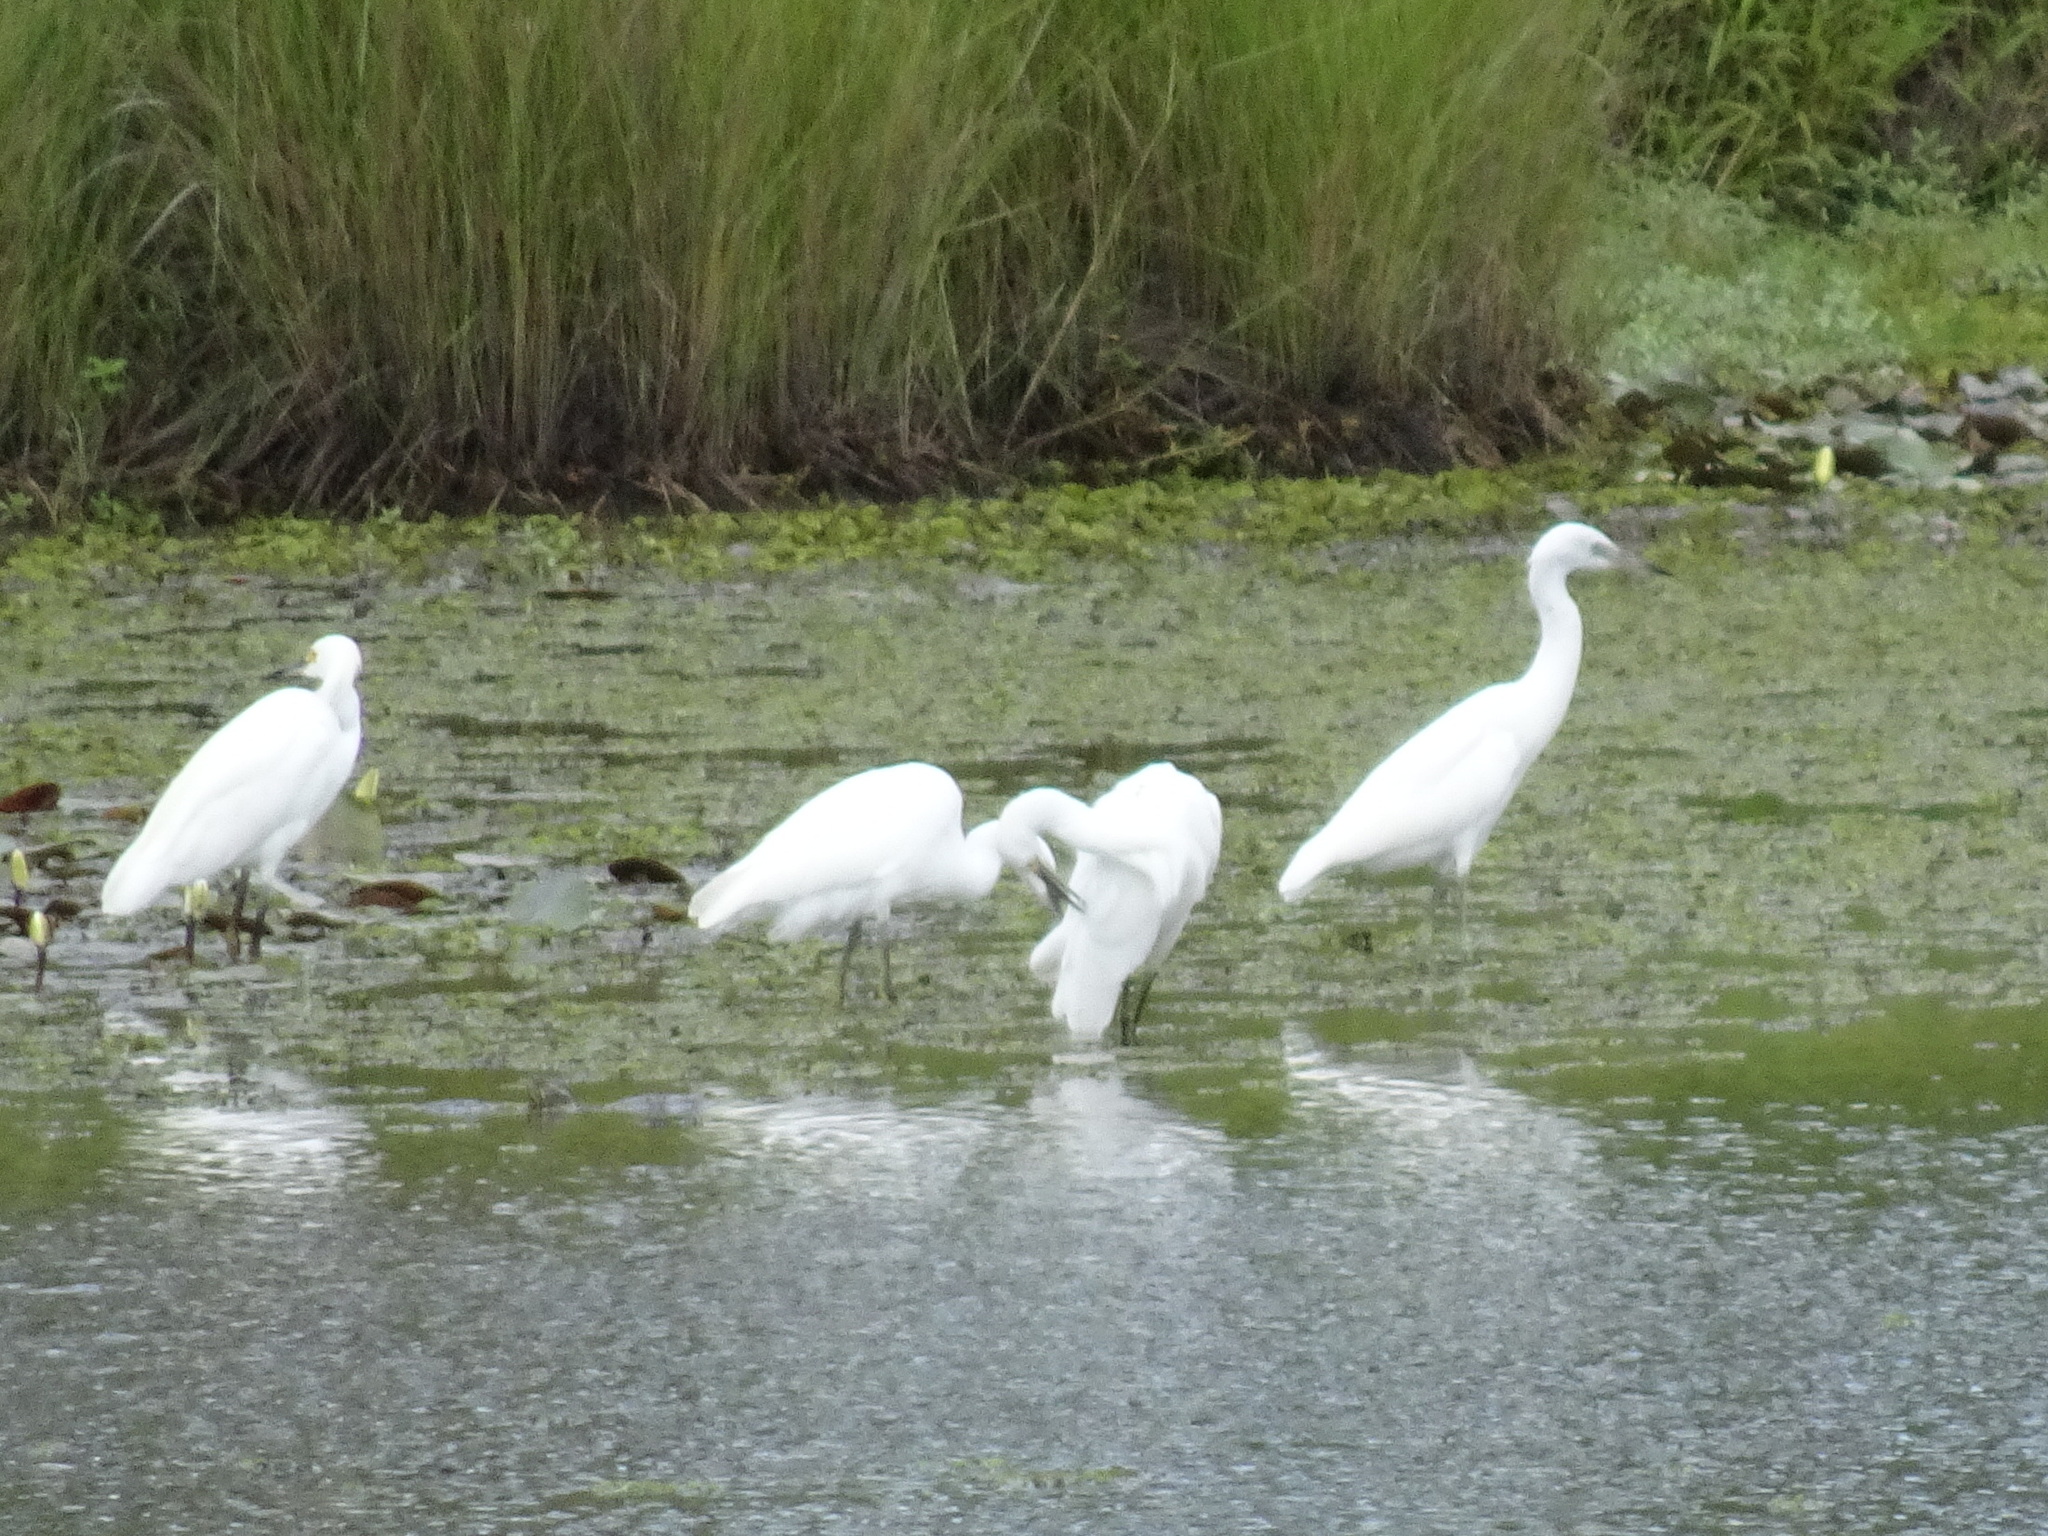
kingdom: Animalia
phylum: Chordata
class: Aves
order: Pelecaniformes
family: Ardeidae
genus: Egretta
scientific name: Egretta caerulea
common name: Little blue heron
